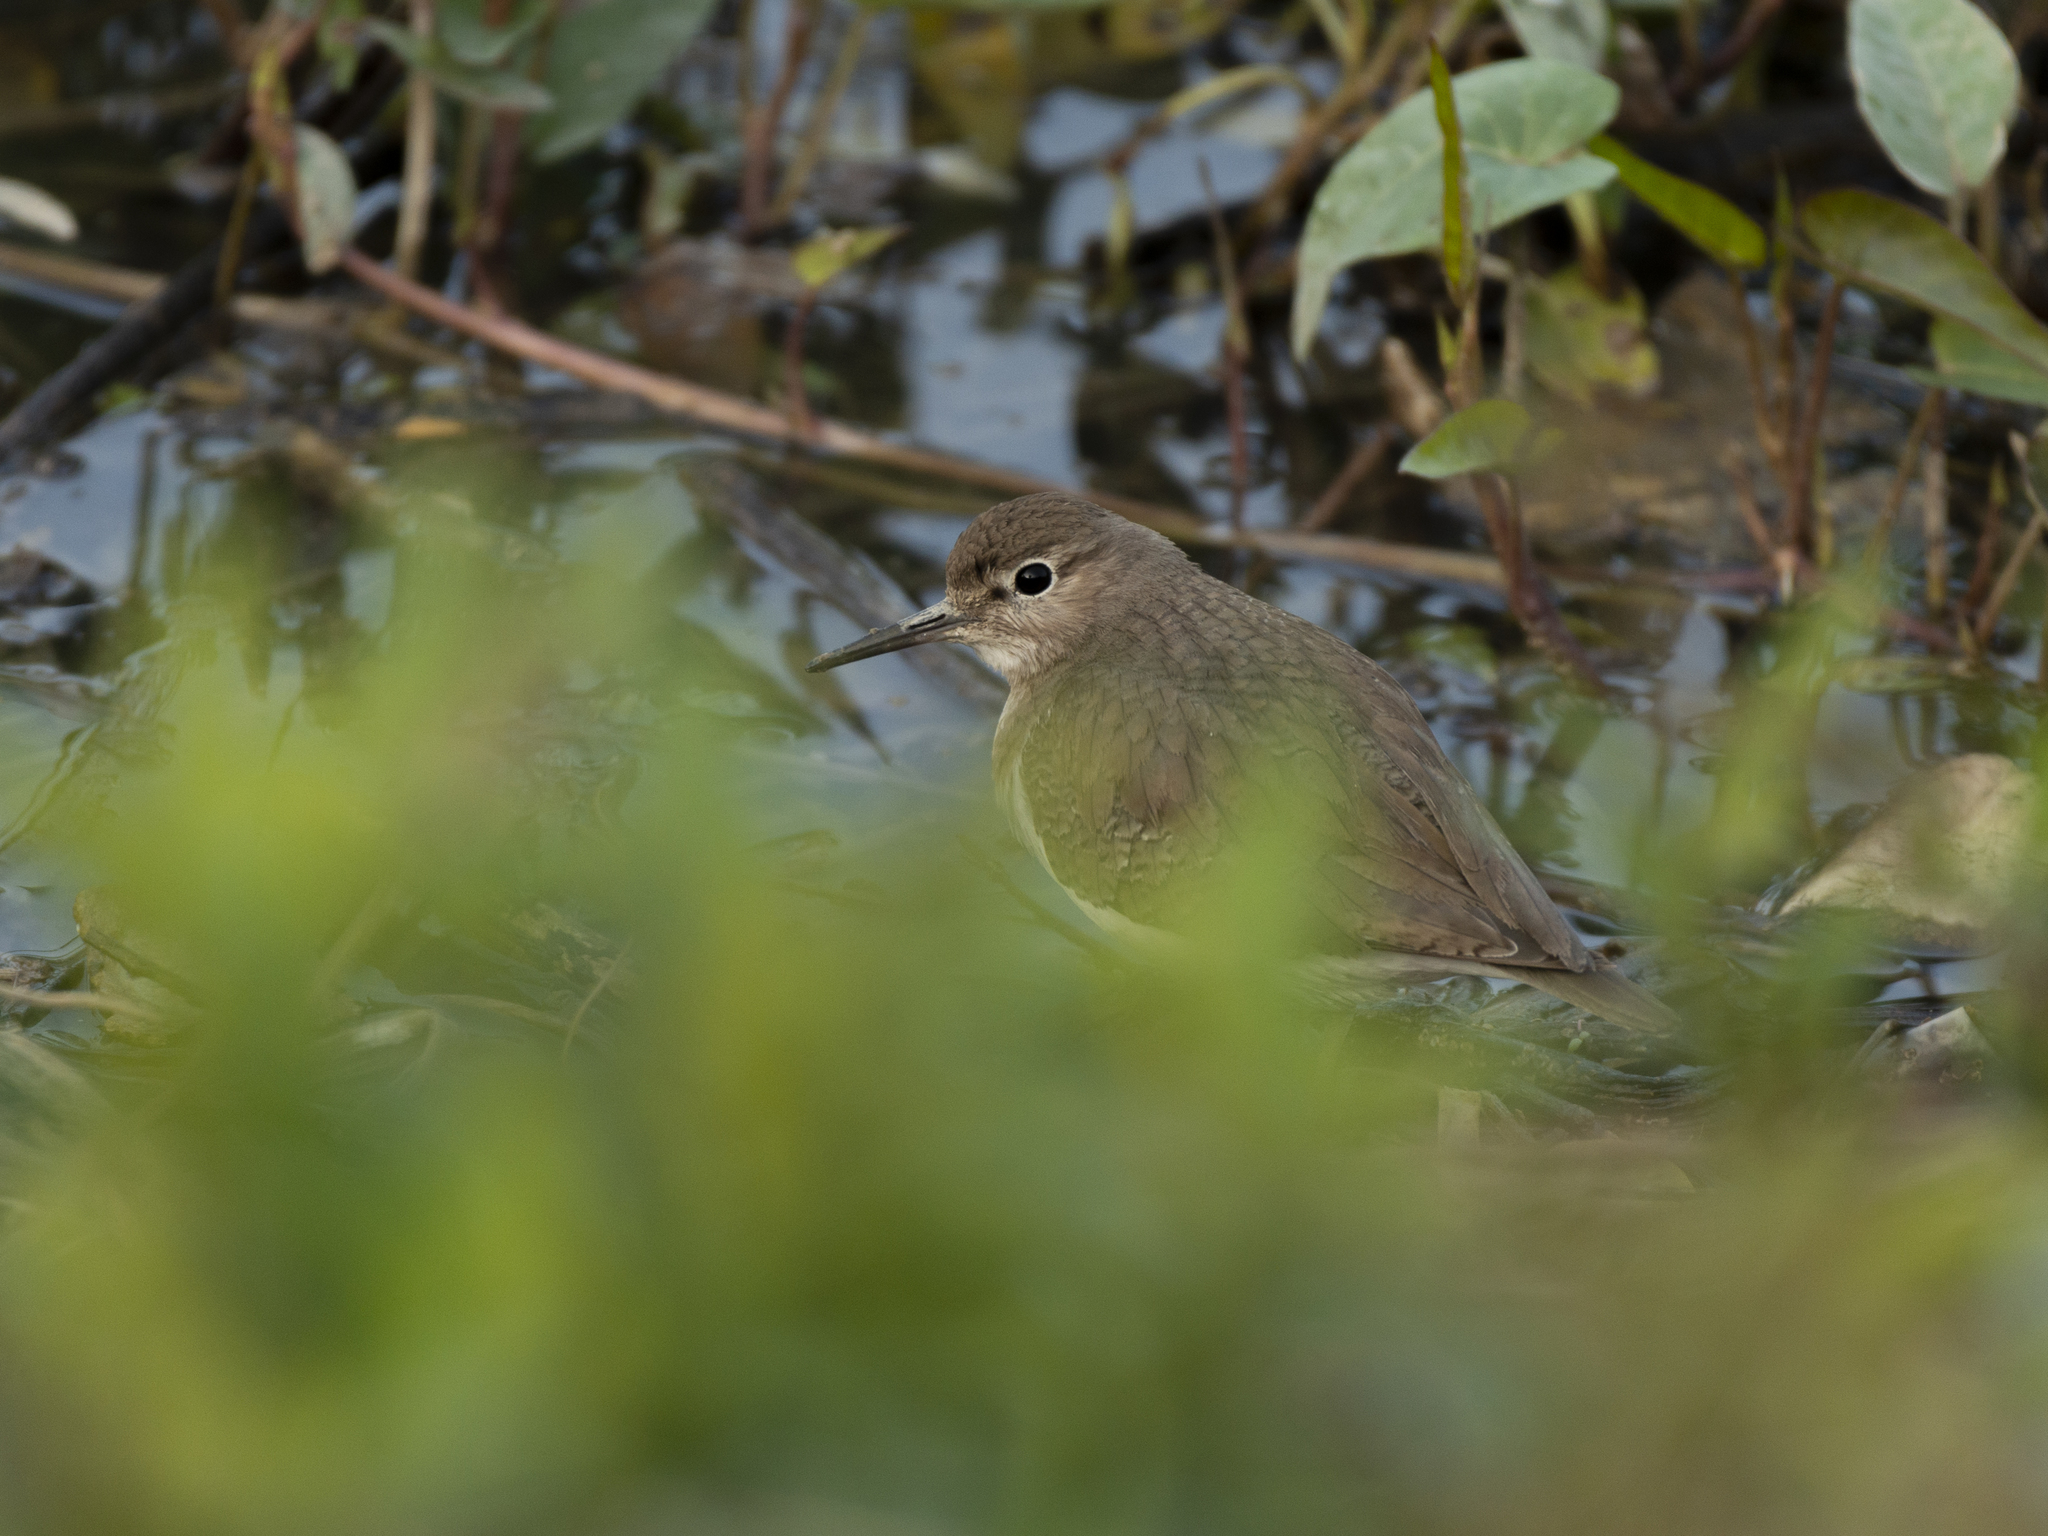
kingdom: Animalia
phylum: Chordata
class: Aves
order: Charadriiformes
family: Scolopacidae
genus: Actitis
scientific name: Actitis hypoleucos
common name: Common sandpiper
